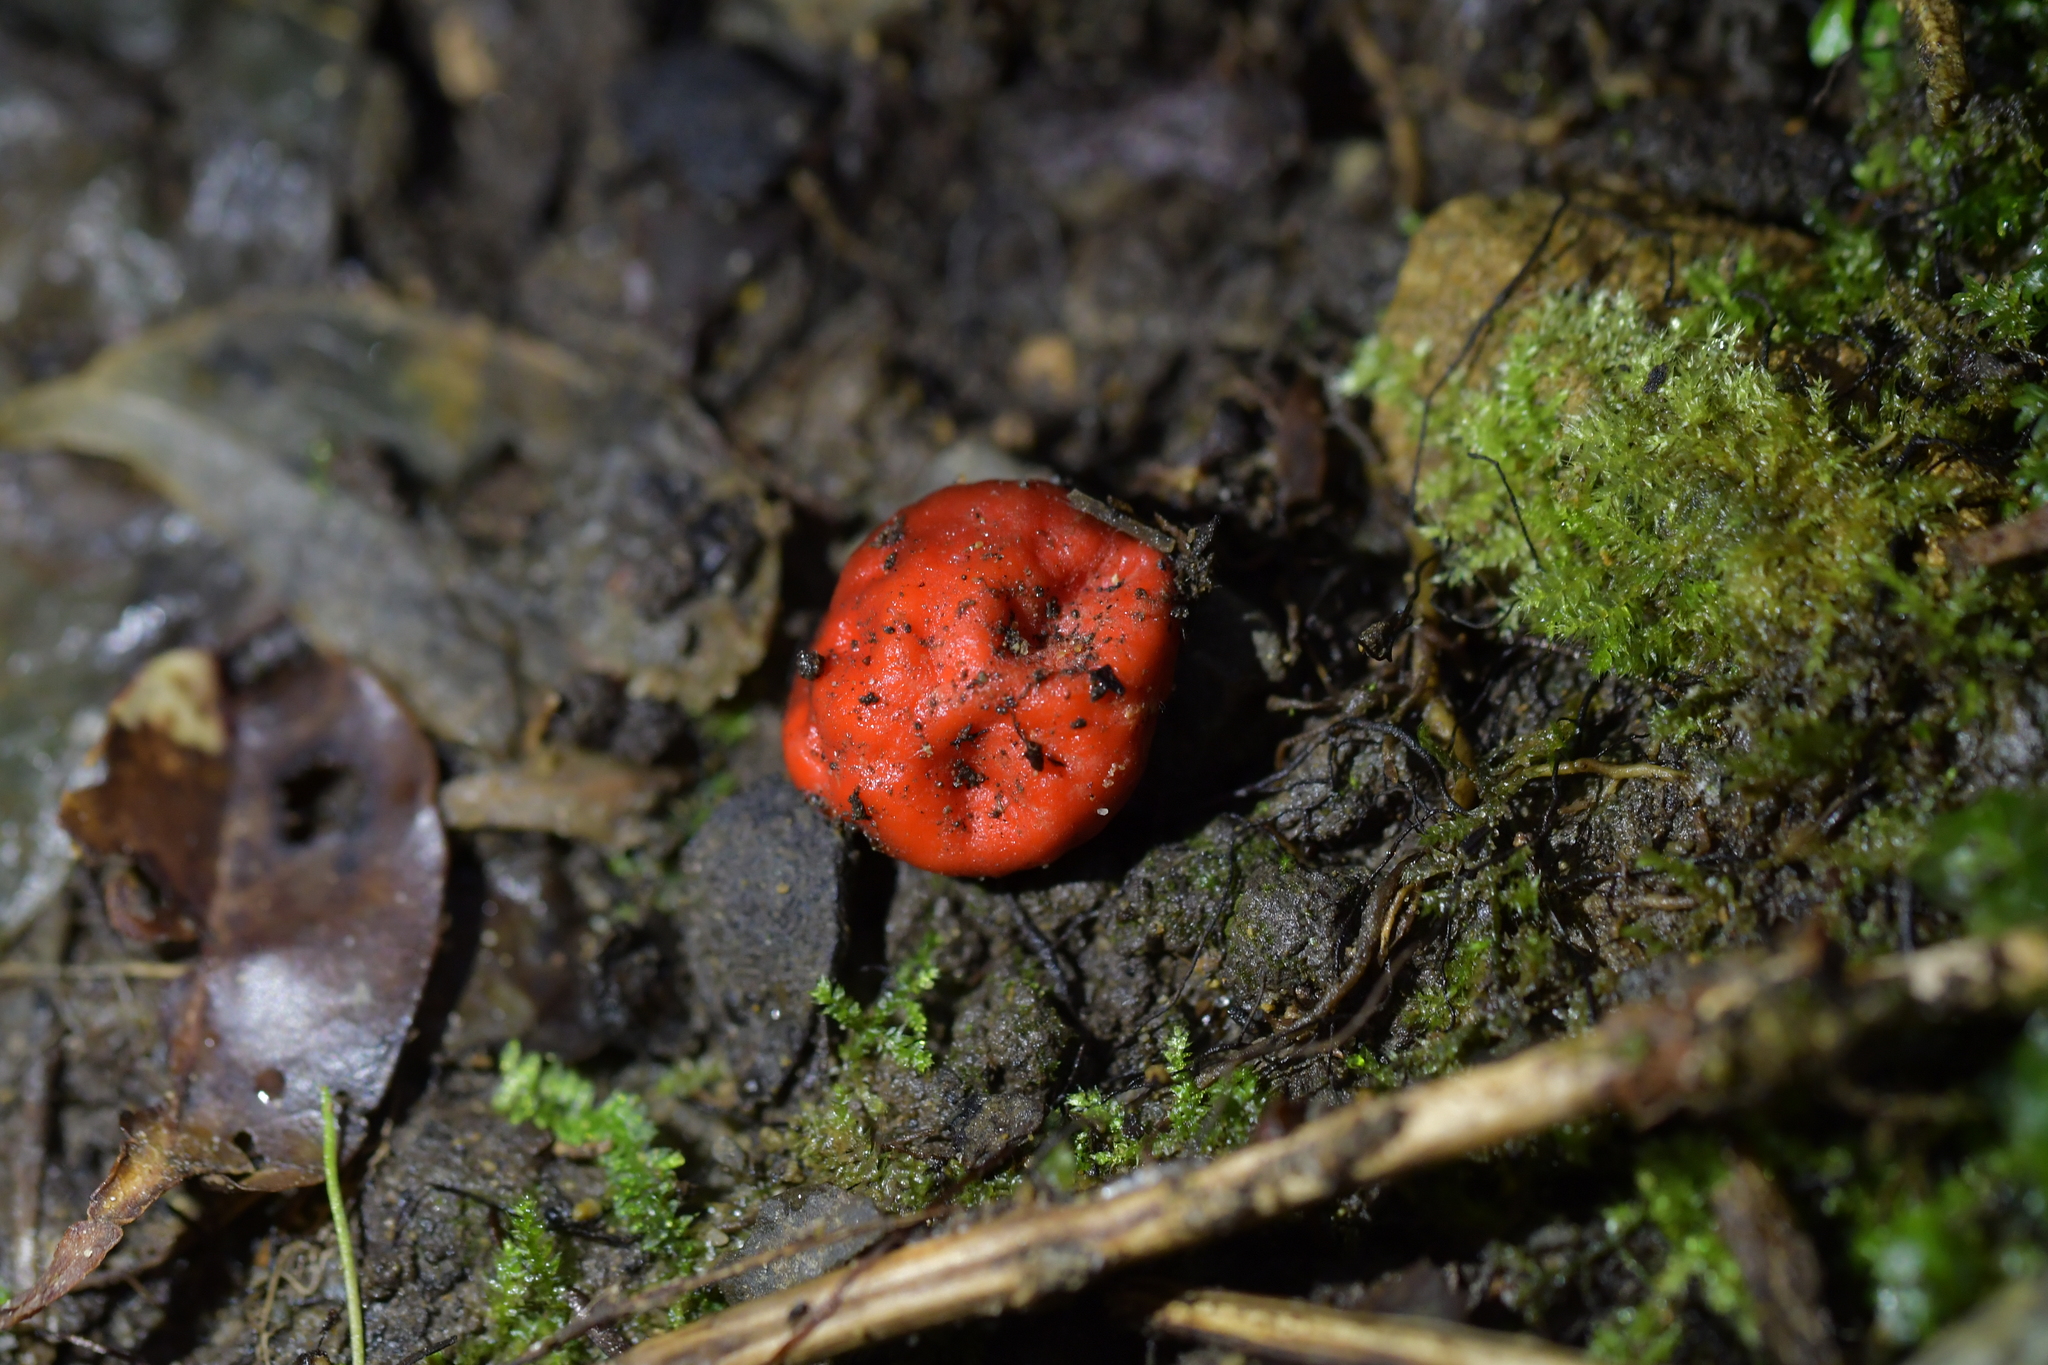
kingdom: Fungi
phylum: Ascomycota
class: Pezizomycetes
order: Pezizales
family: Pyronemataceae
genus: Paurocotylis
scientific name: Paurocotylis pila
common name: Scarlet berry truffle
